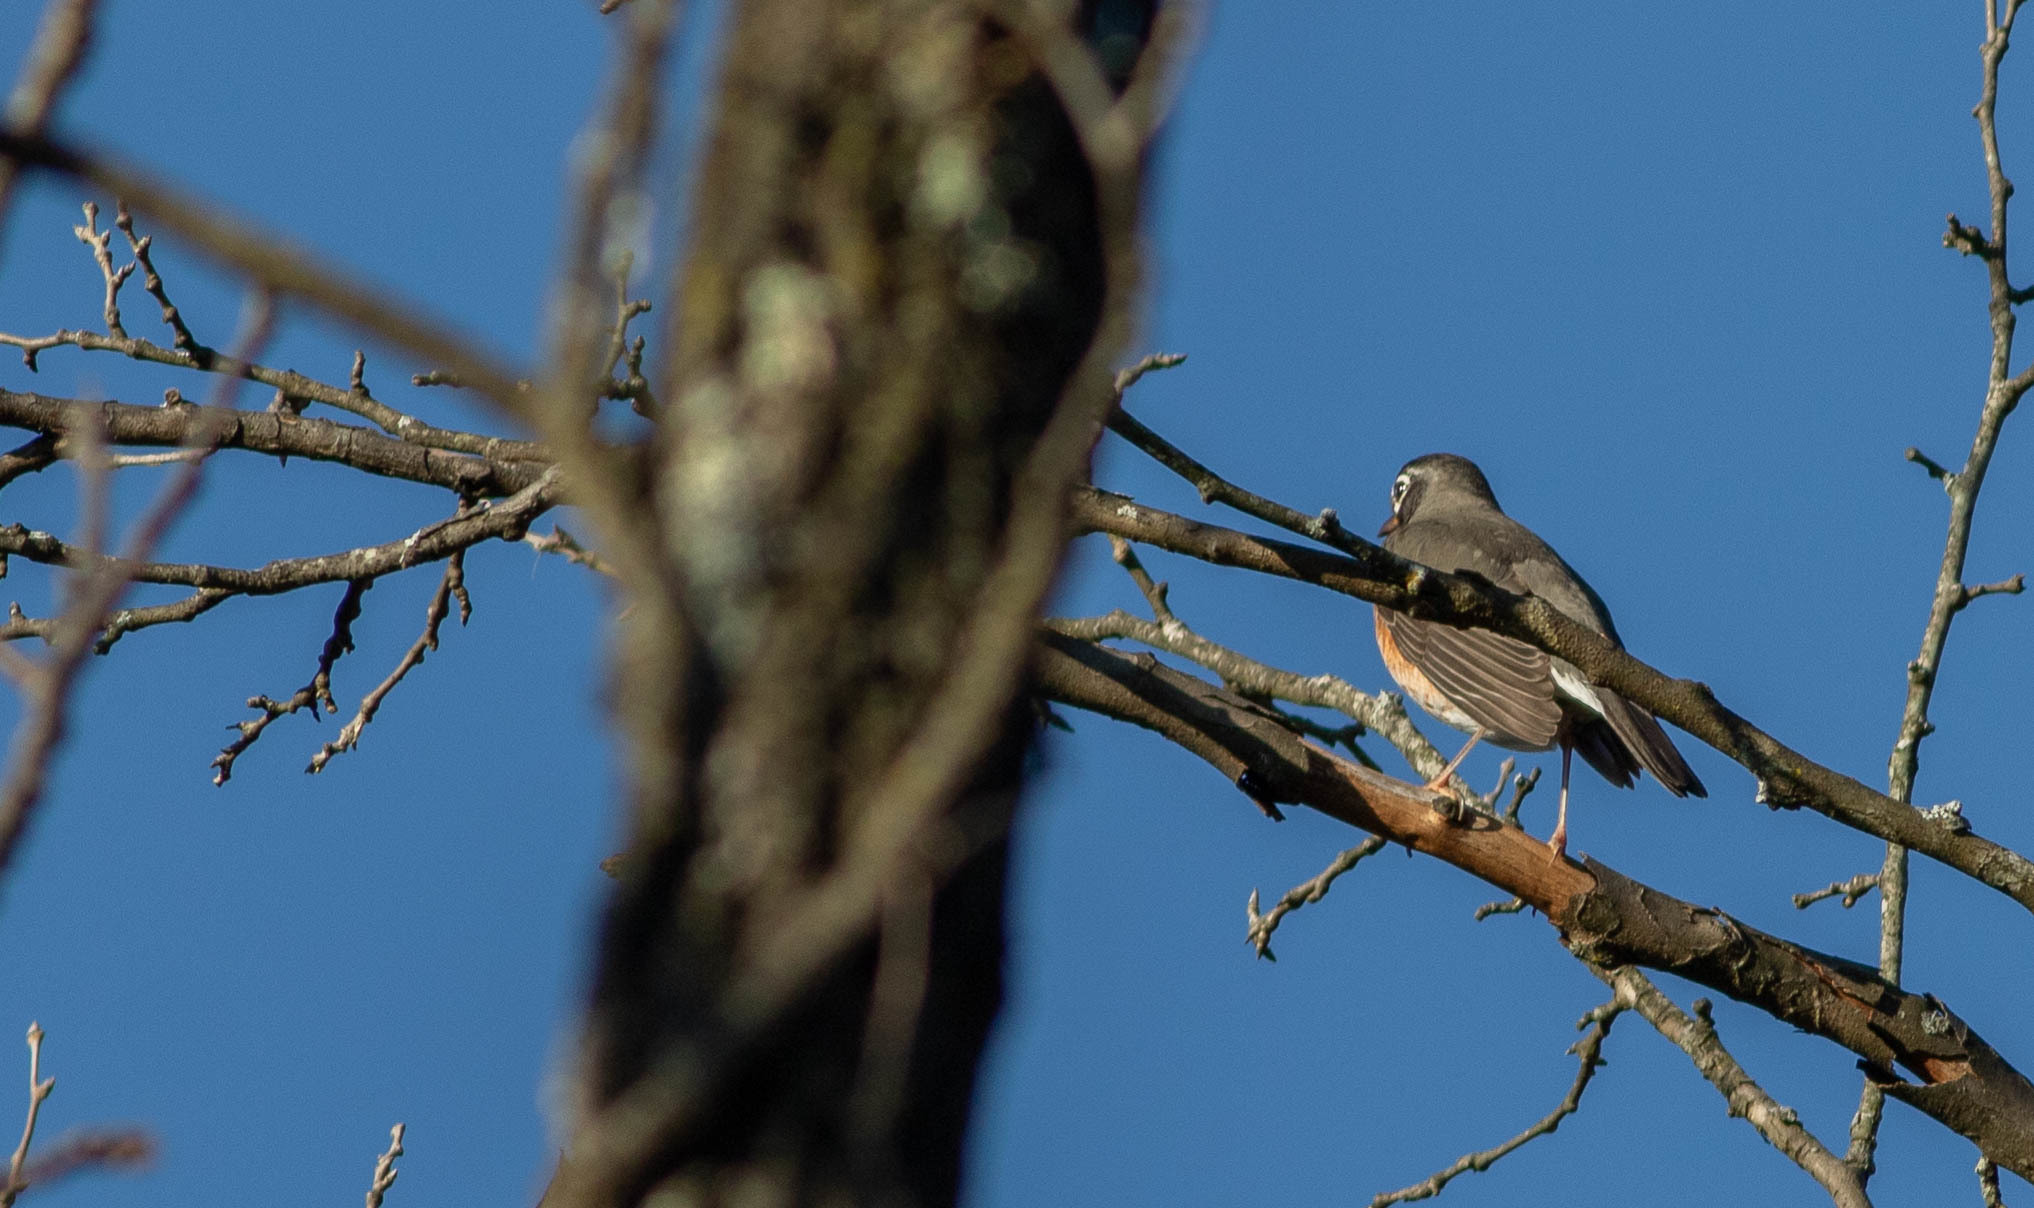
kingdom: Animalia
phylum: Chordata
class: Aves
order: Passeriformes
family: Turdidae
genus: Turdus
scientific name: Turdus migratorius
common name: American robin
